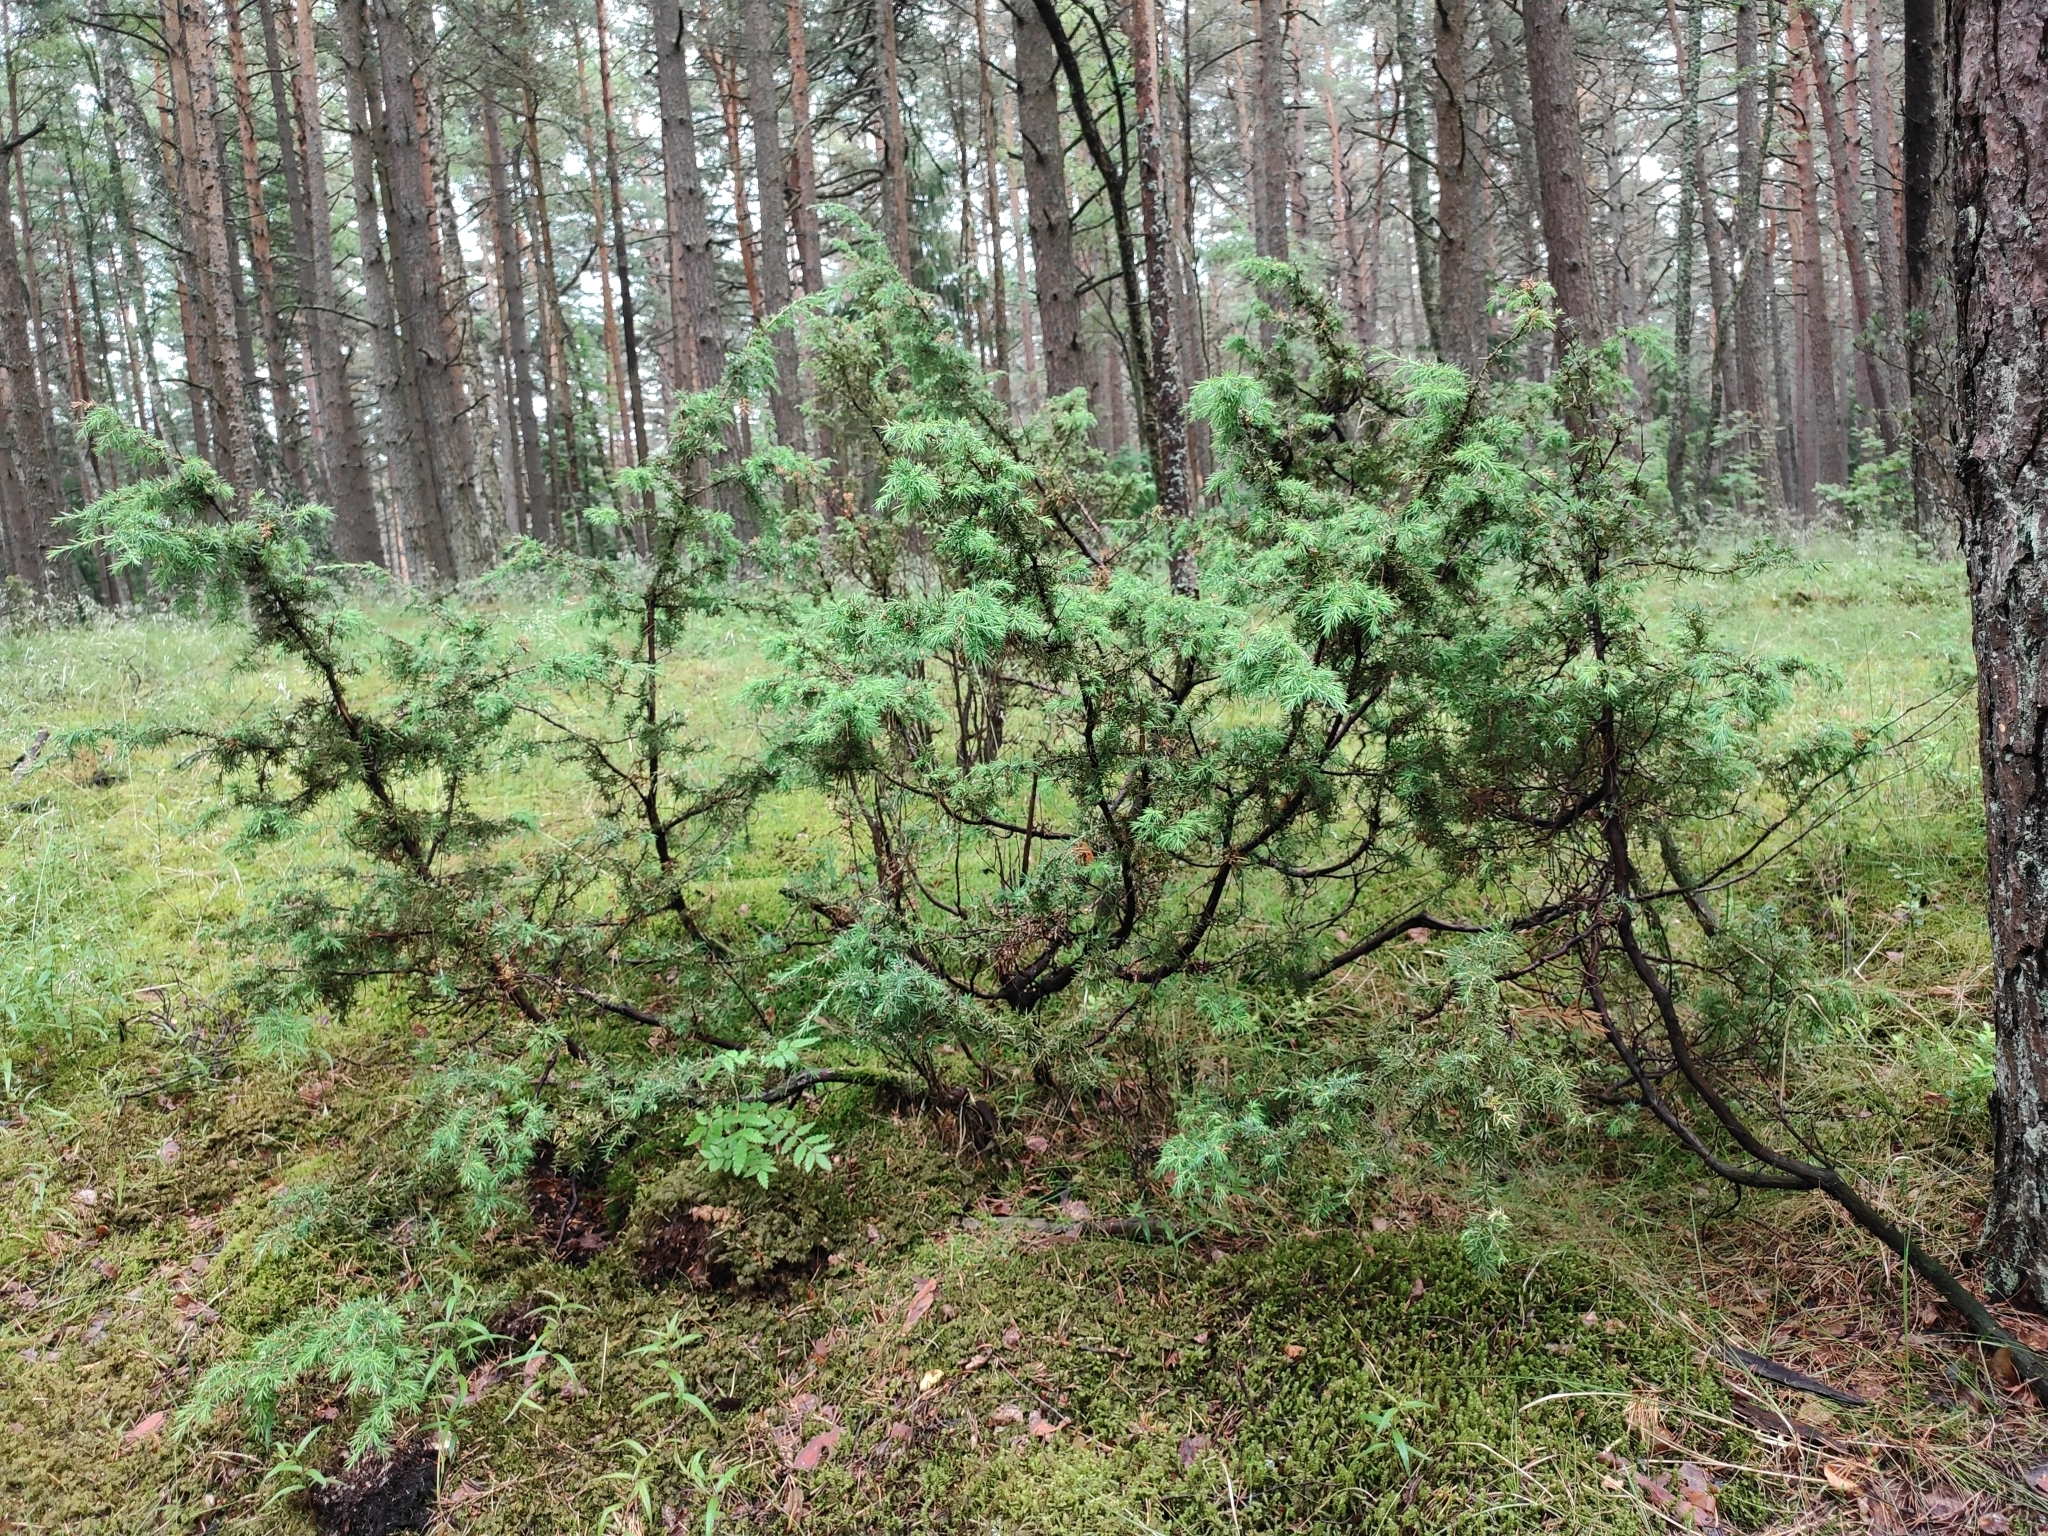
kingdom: Plantae
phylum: Tracheophyta
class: Pinopsida
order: Pinales
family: Cupressaceae
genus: Juniperus
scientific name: Juniperus communis
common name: Common juniper
